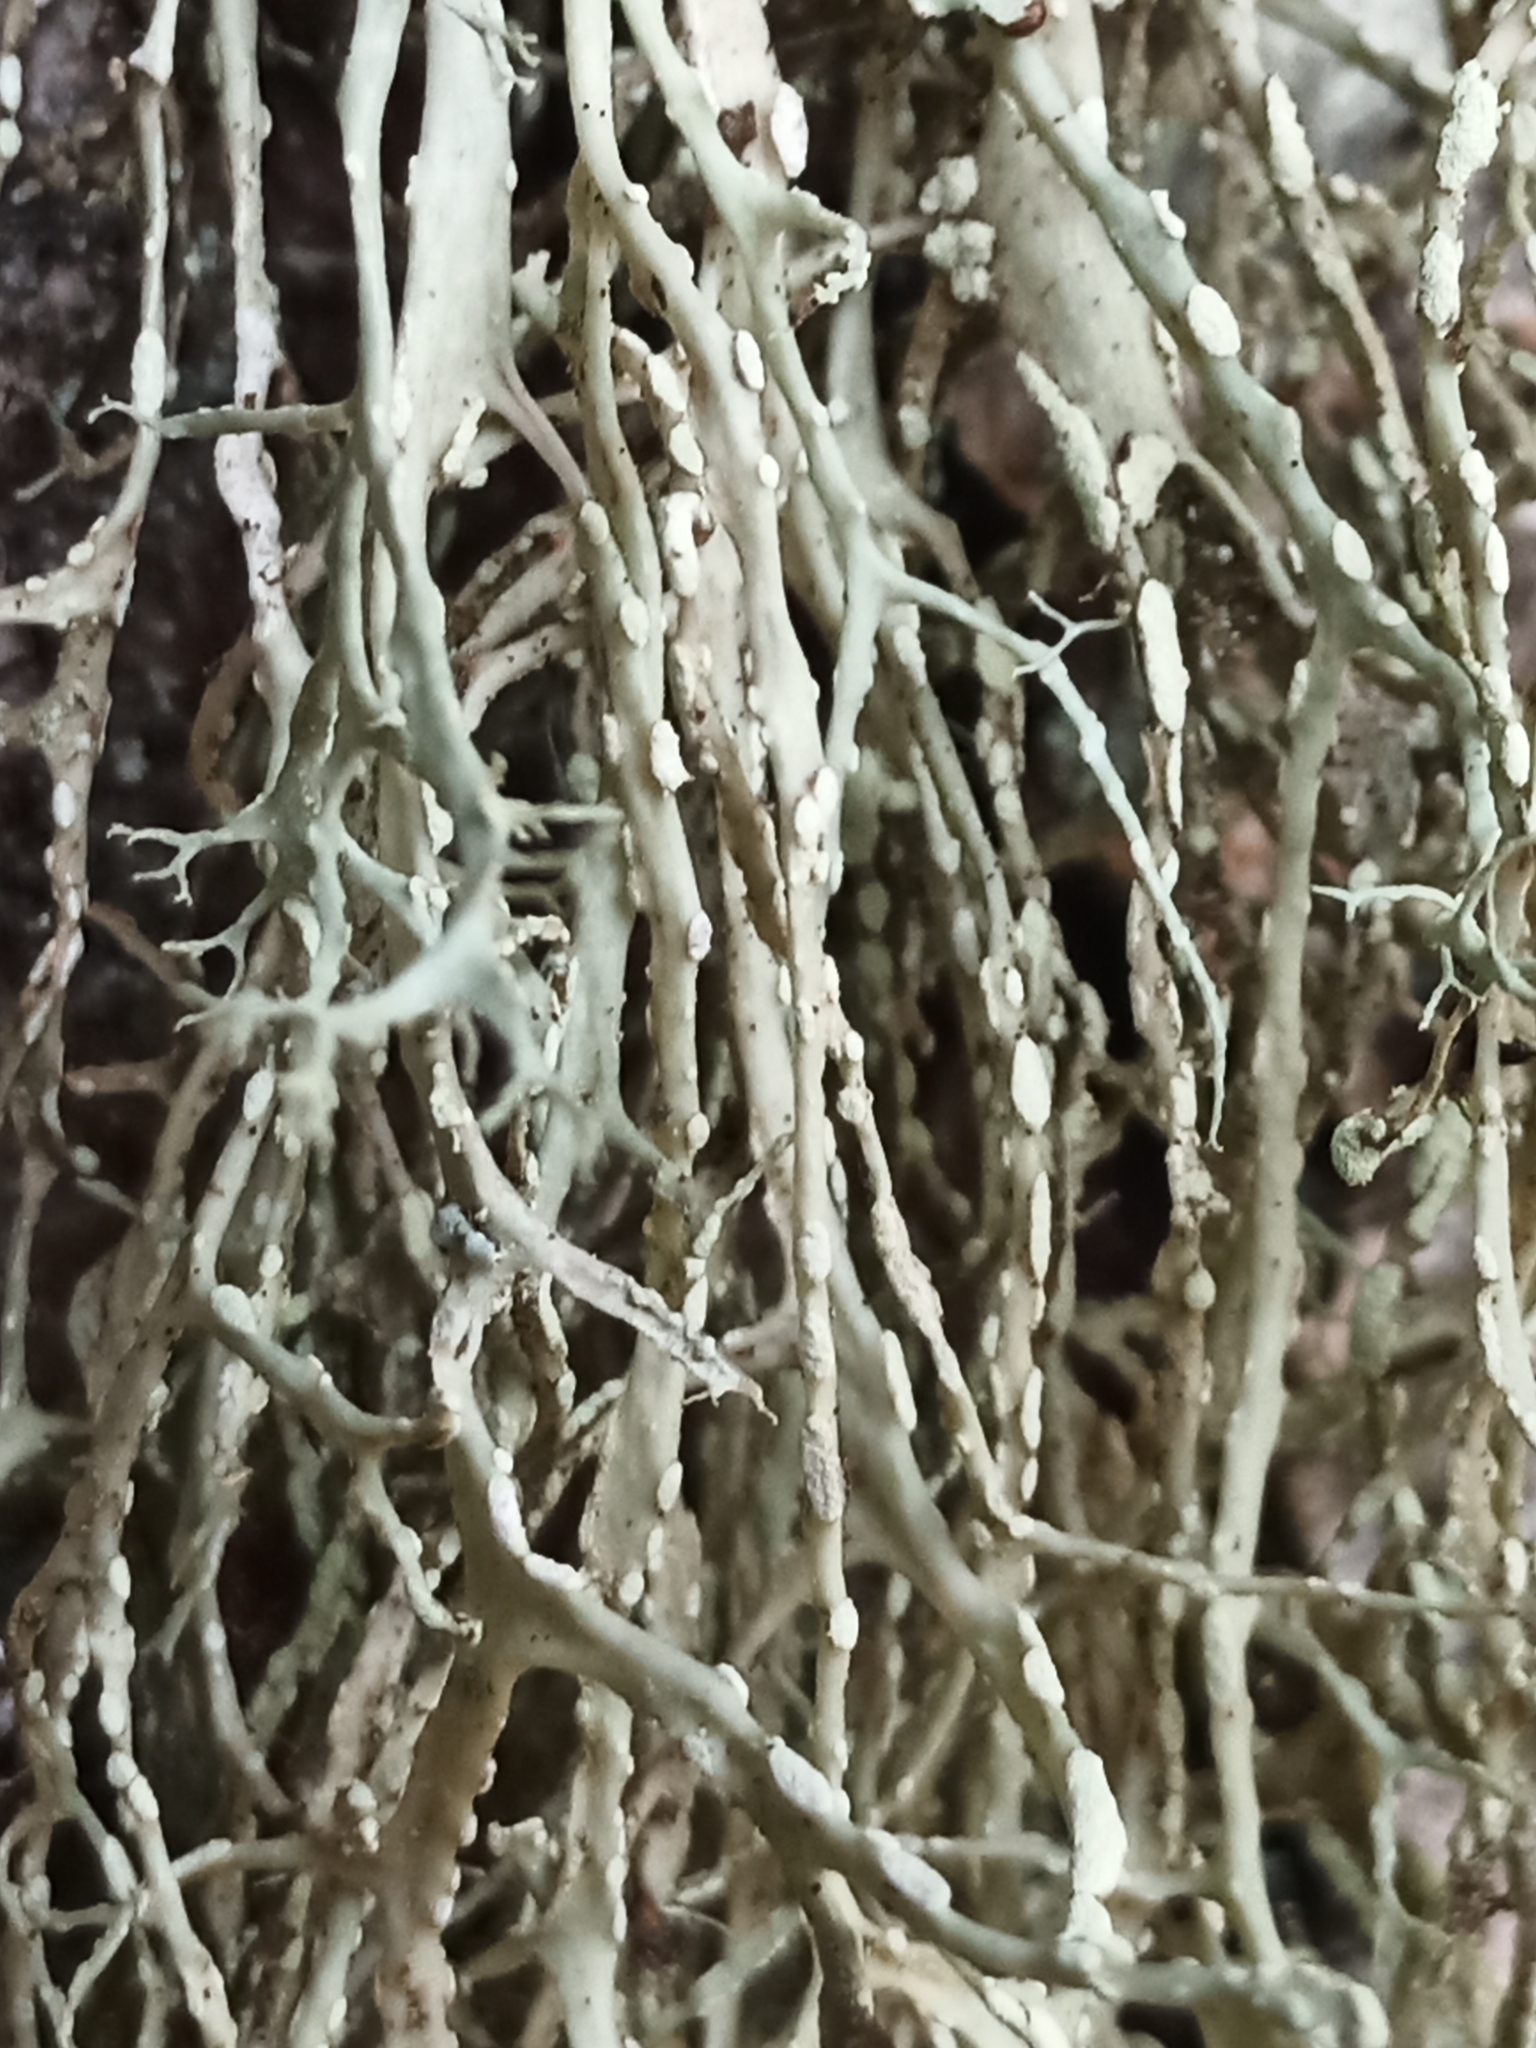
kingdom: Fungi
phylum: Ascomycota
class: Lecanoromycetes
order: Lecanorales
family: Ramalinaceae
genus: Ramalina
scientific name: Ramalina farinacea
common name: Farinose cartilage lichen
